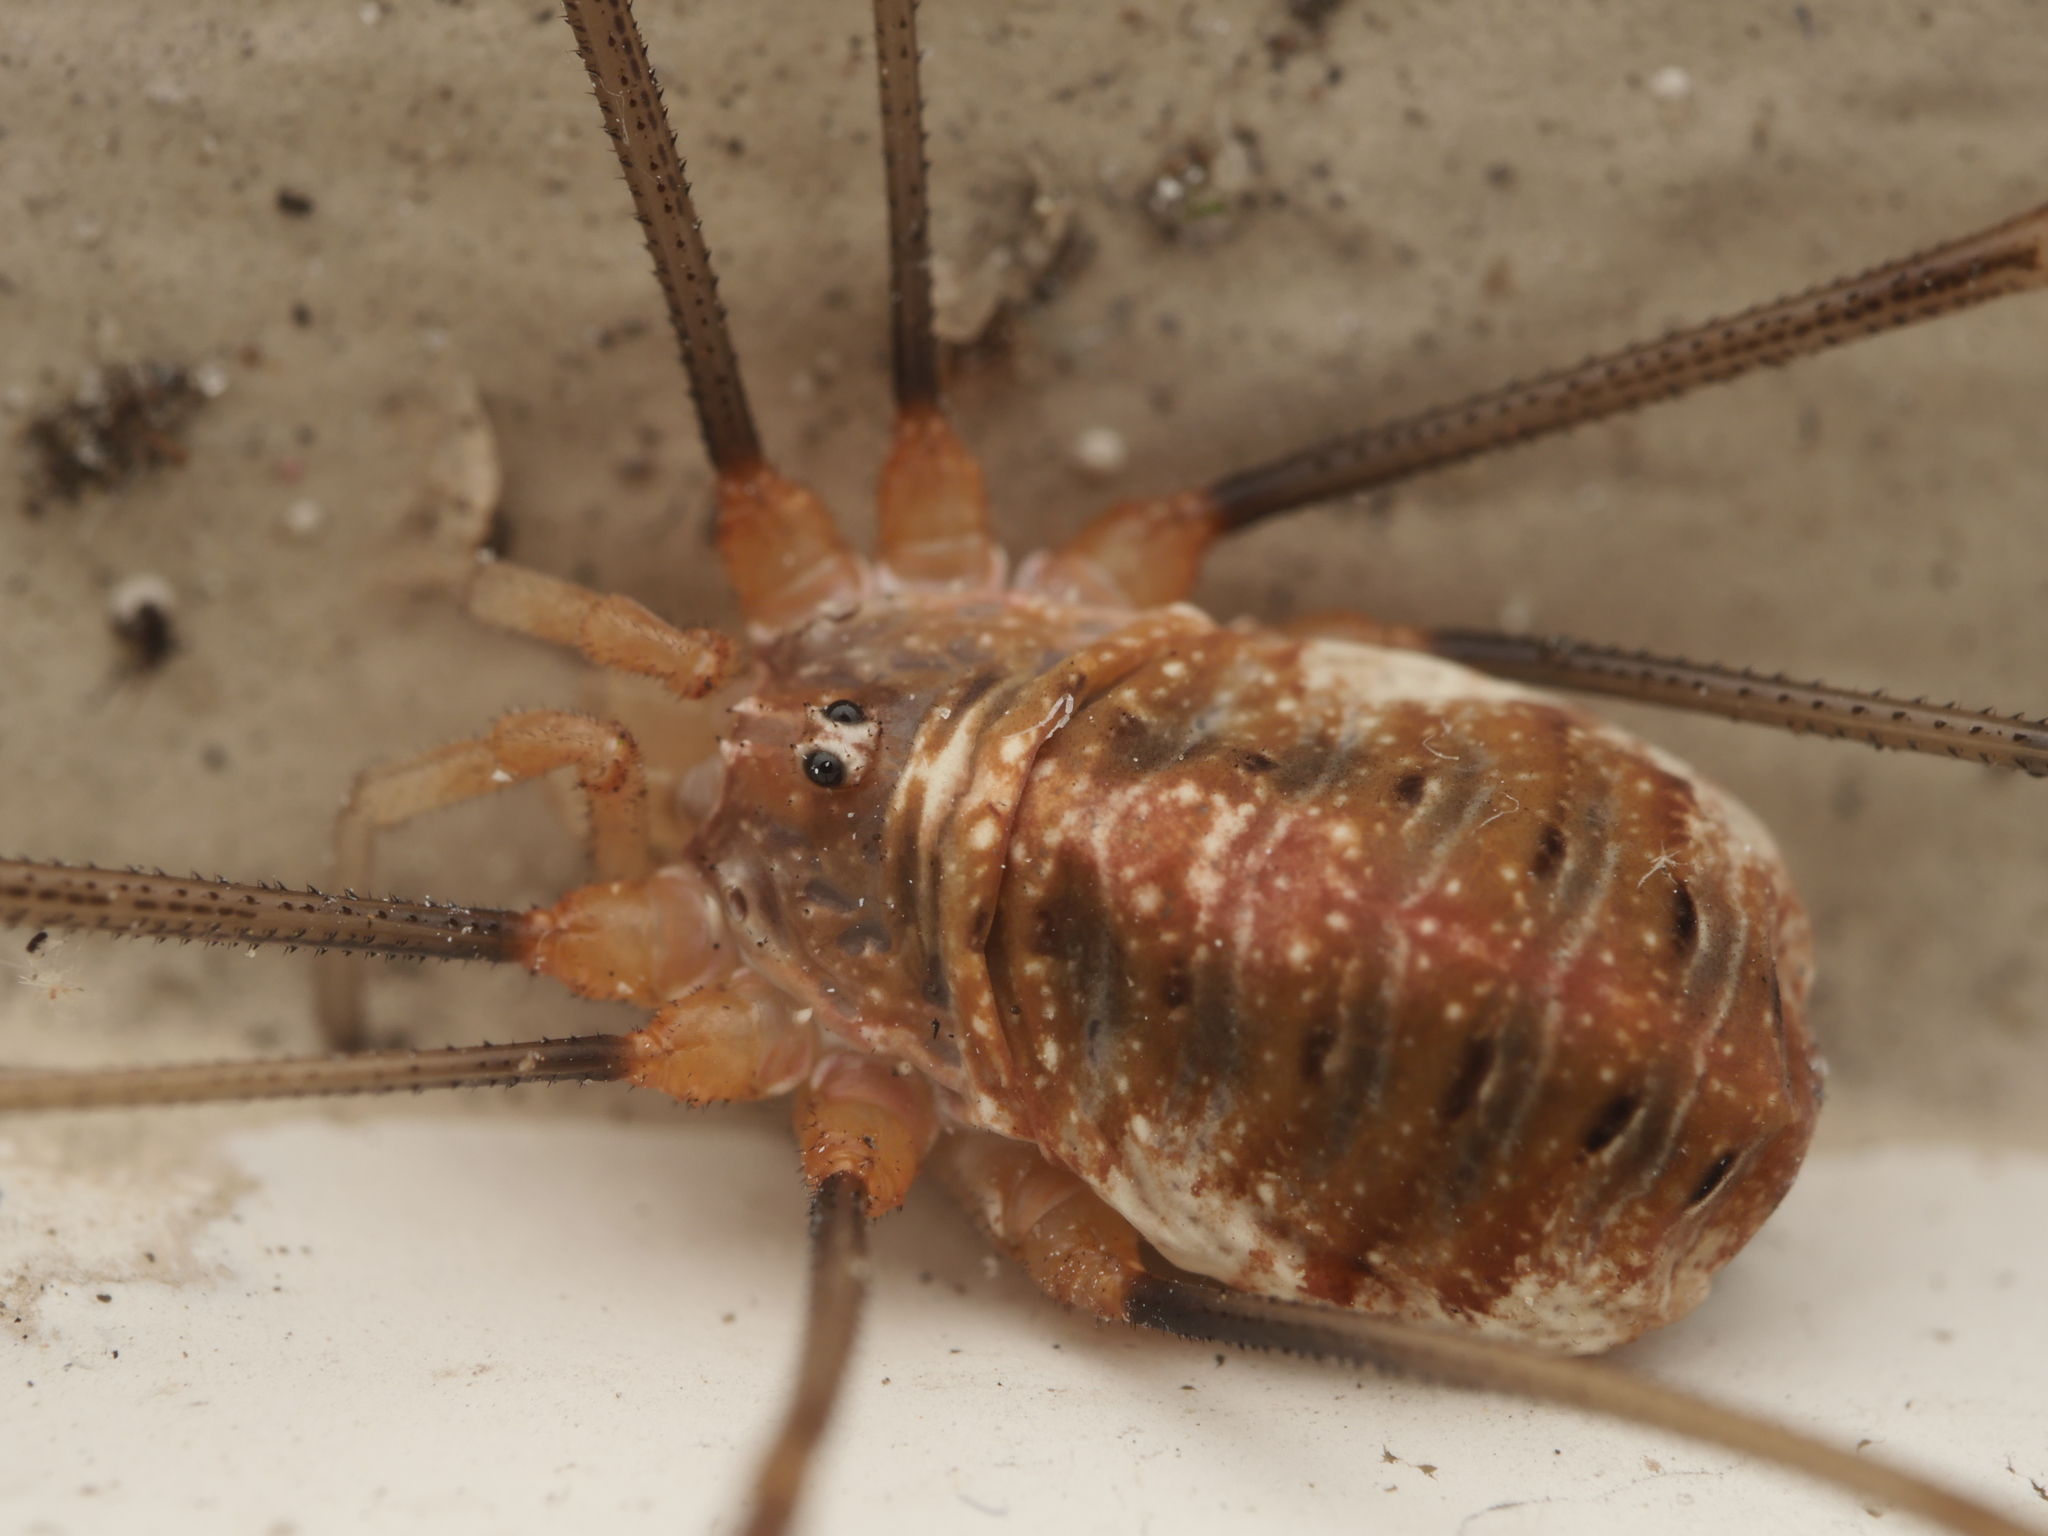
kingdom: Animalia
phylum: Arthropoda
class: Arachnida
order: Opiliones
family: Phalangiidae
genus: Opilio
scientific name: Opilio canestrinii
